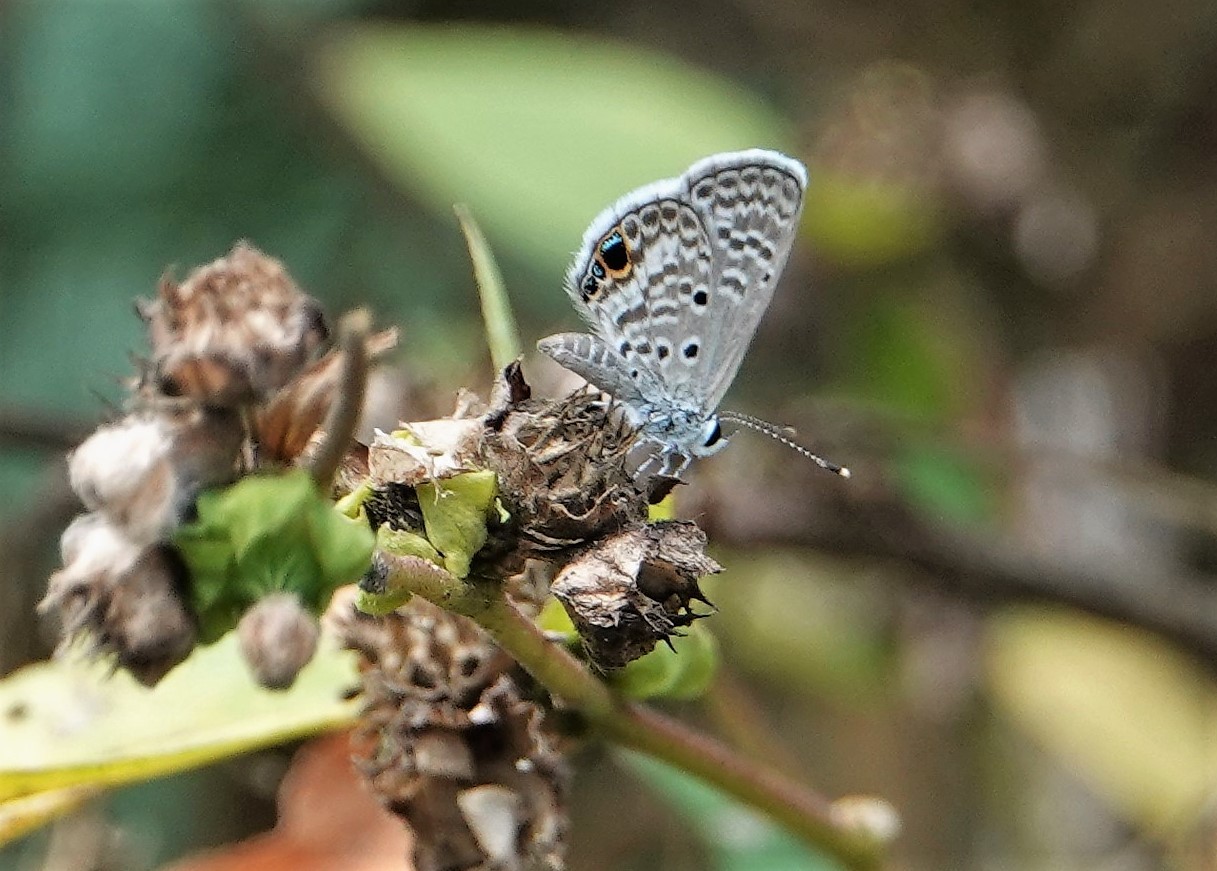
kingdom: Animalia
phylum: Arthropoda
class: Insecta
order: Lepidoptera
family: Lycaenidae
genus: Hemiargus
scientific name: Hemiargus ceraunus
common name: Ceraunus blue
